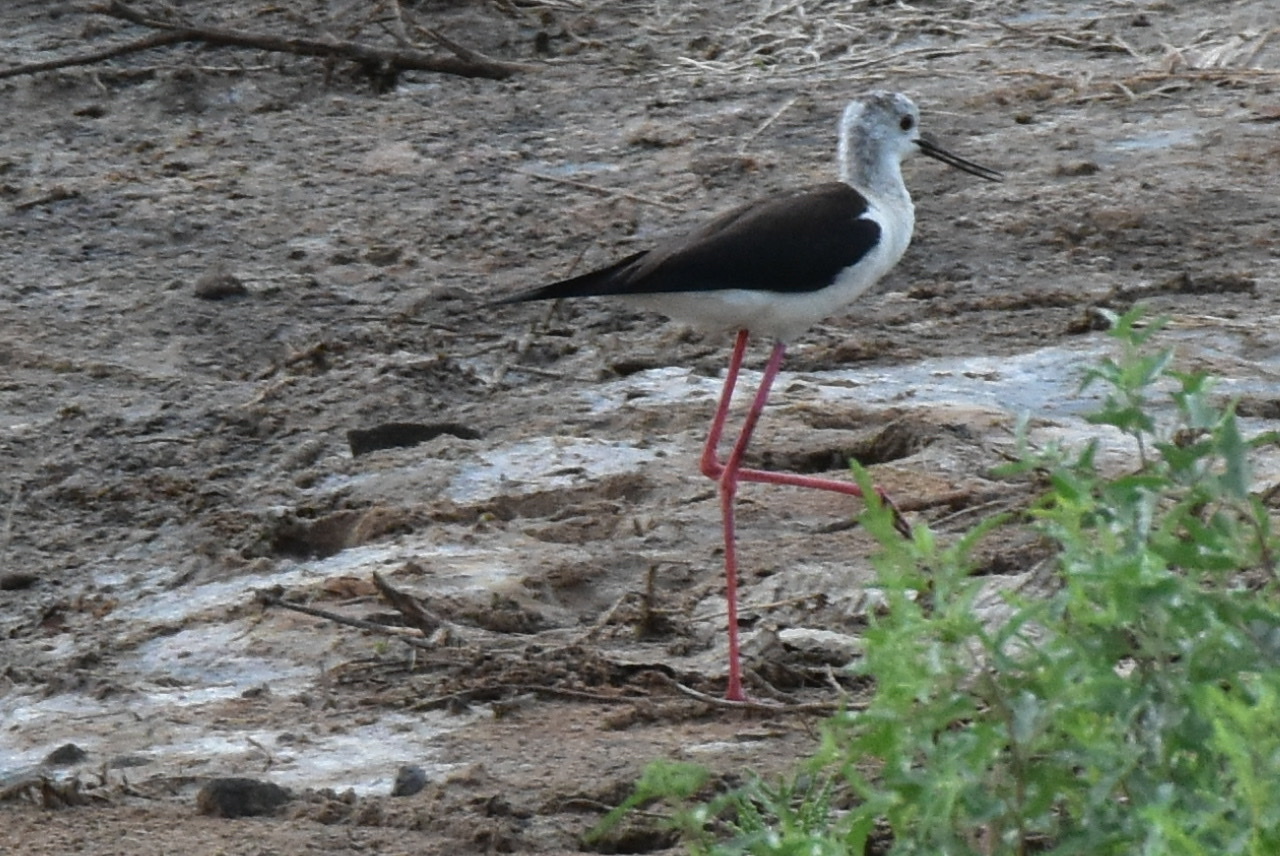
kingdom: Animalia
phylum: Chordata
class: Aves
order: Charadriiformes
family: Recurvirostridae
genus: Himantopus
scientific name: Himantopus himantopus
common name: Black-winged stilt
